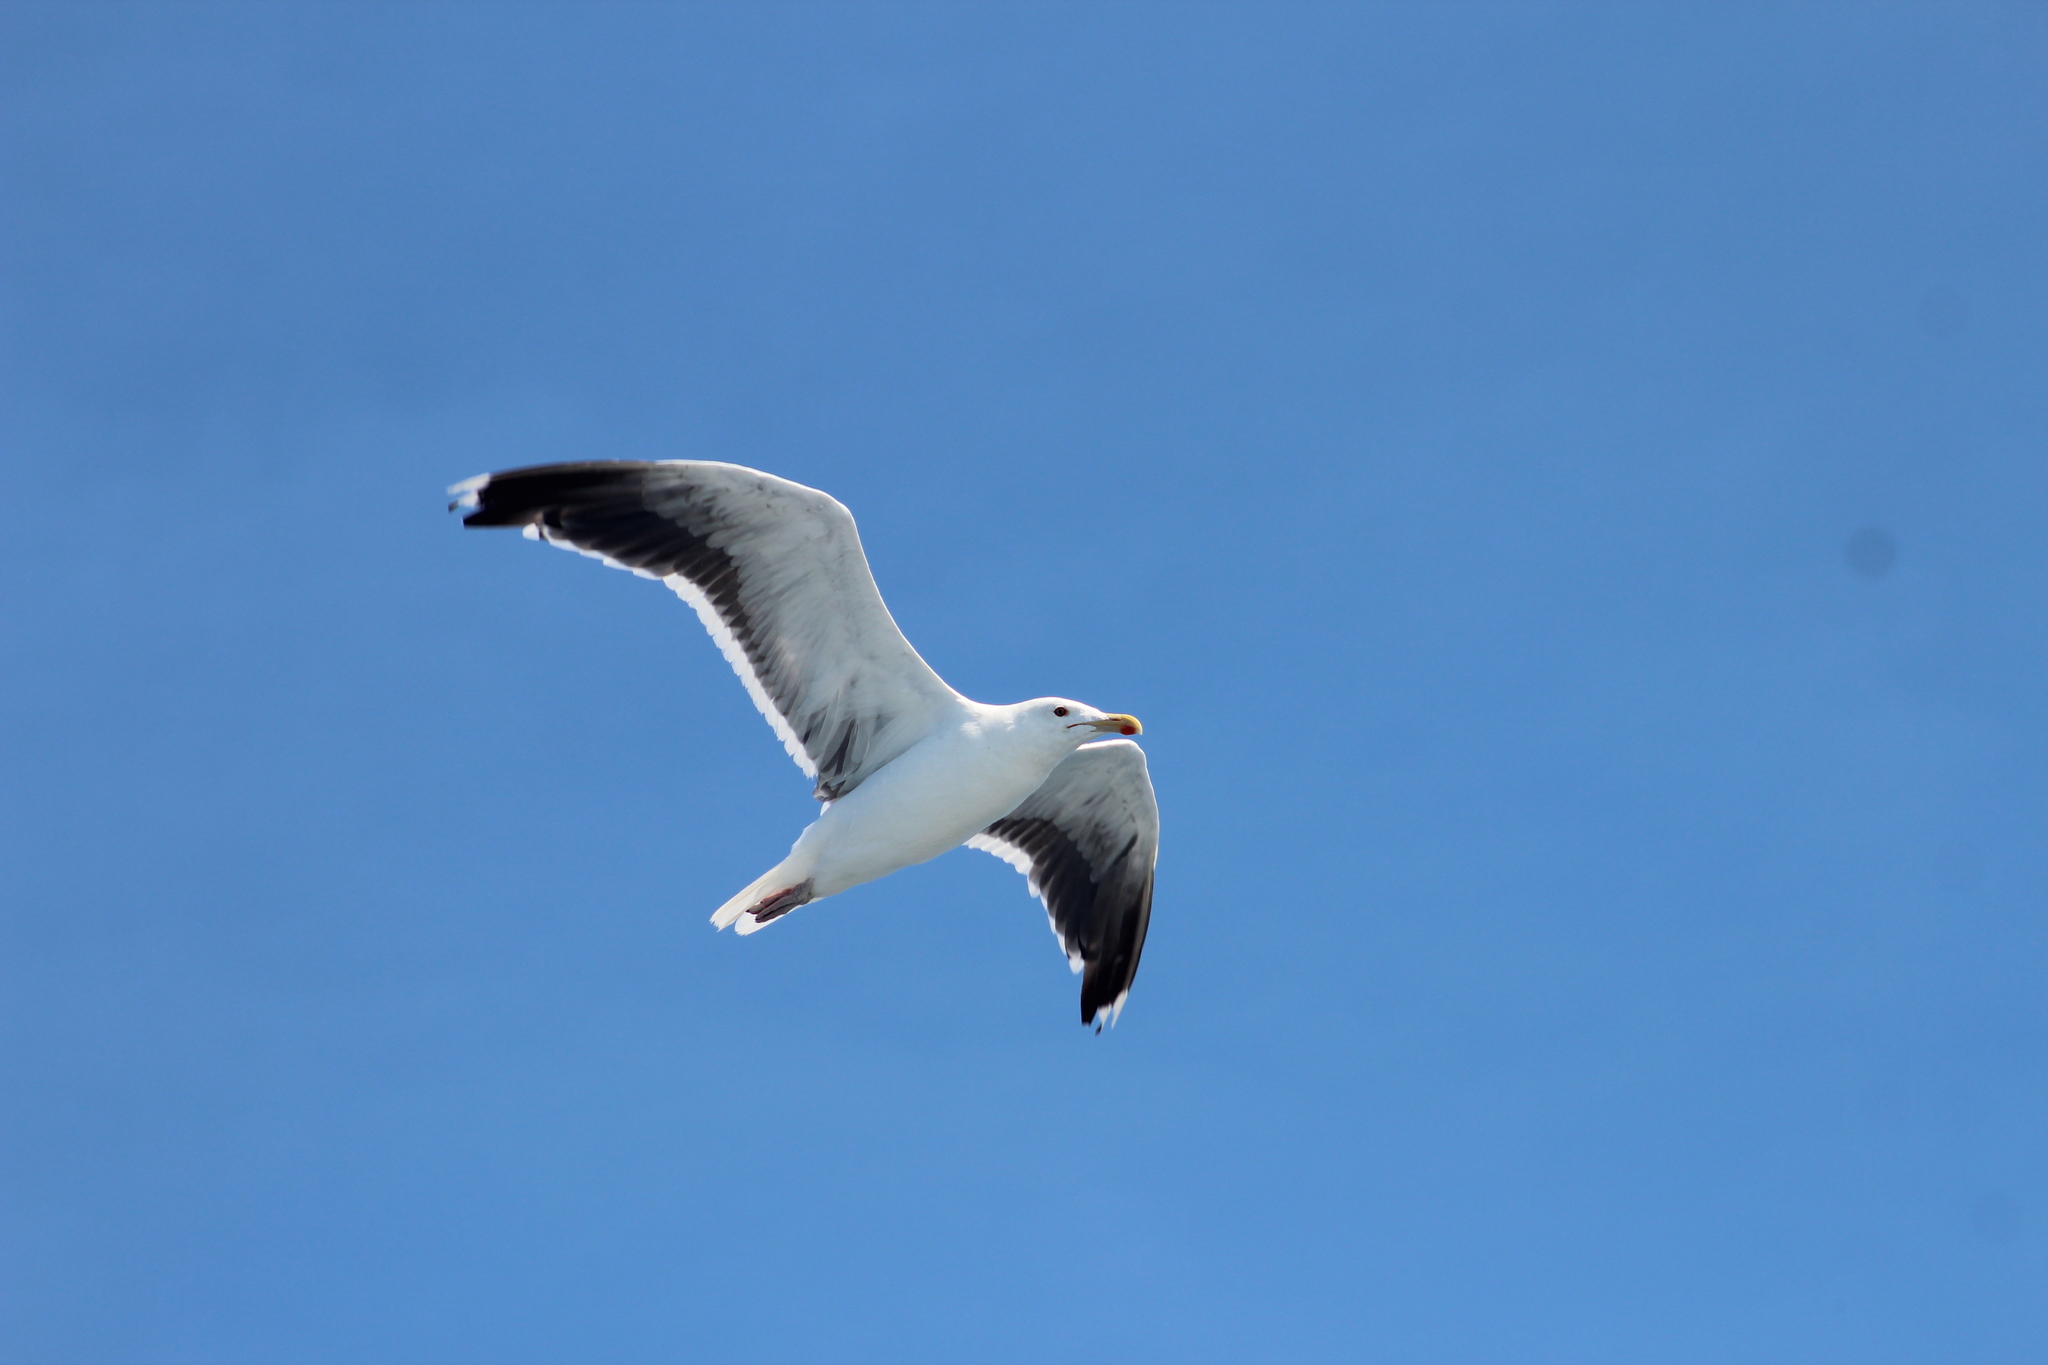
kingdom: Animalia
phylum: Chordata
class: Aves
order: Charadriiformes
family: Laridae
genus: Larus
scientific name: Larus marinus
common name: Great black-backed gull
